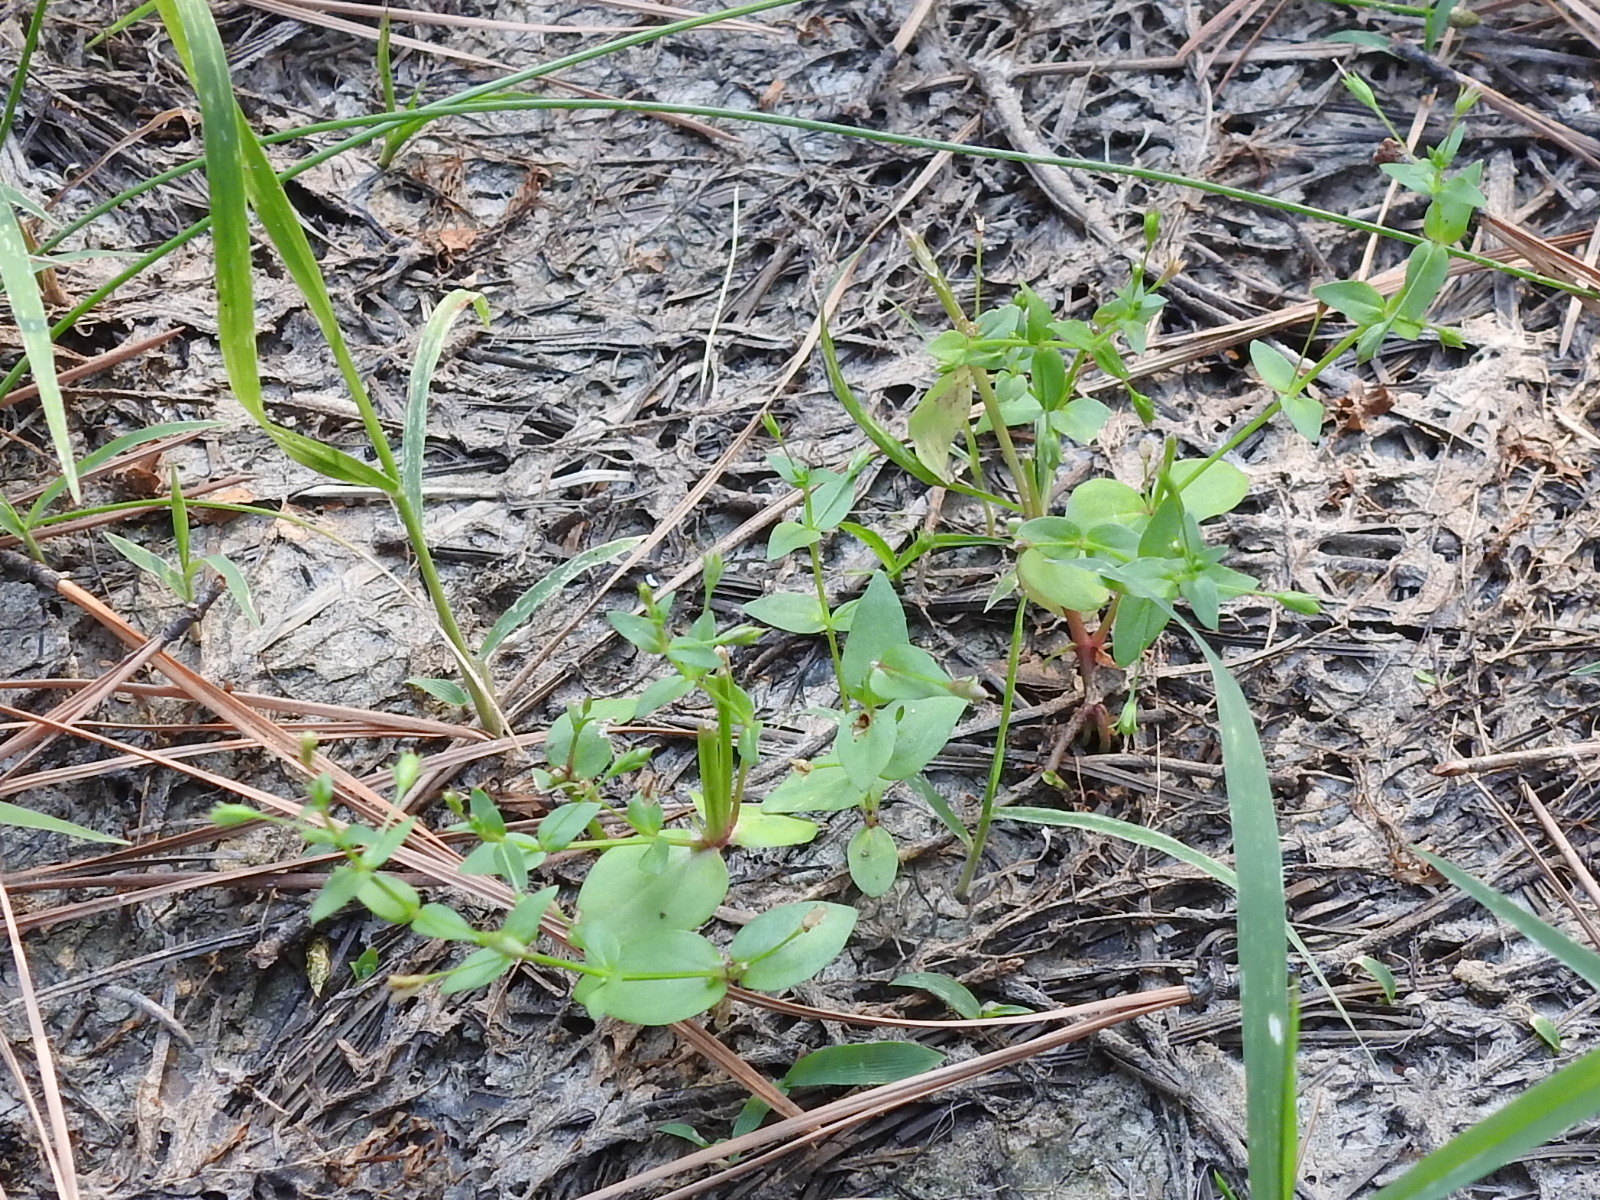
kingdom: Plantae
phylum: Tracheophyta
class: Magnoliopsida
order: Lamiales
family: Linderniaceae
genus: Lindernia
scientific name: Lindernia dubia
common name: Annual false pimpernel
